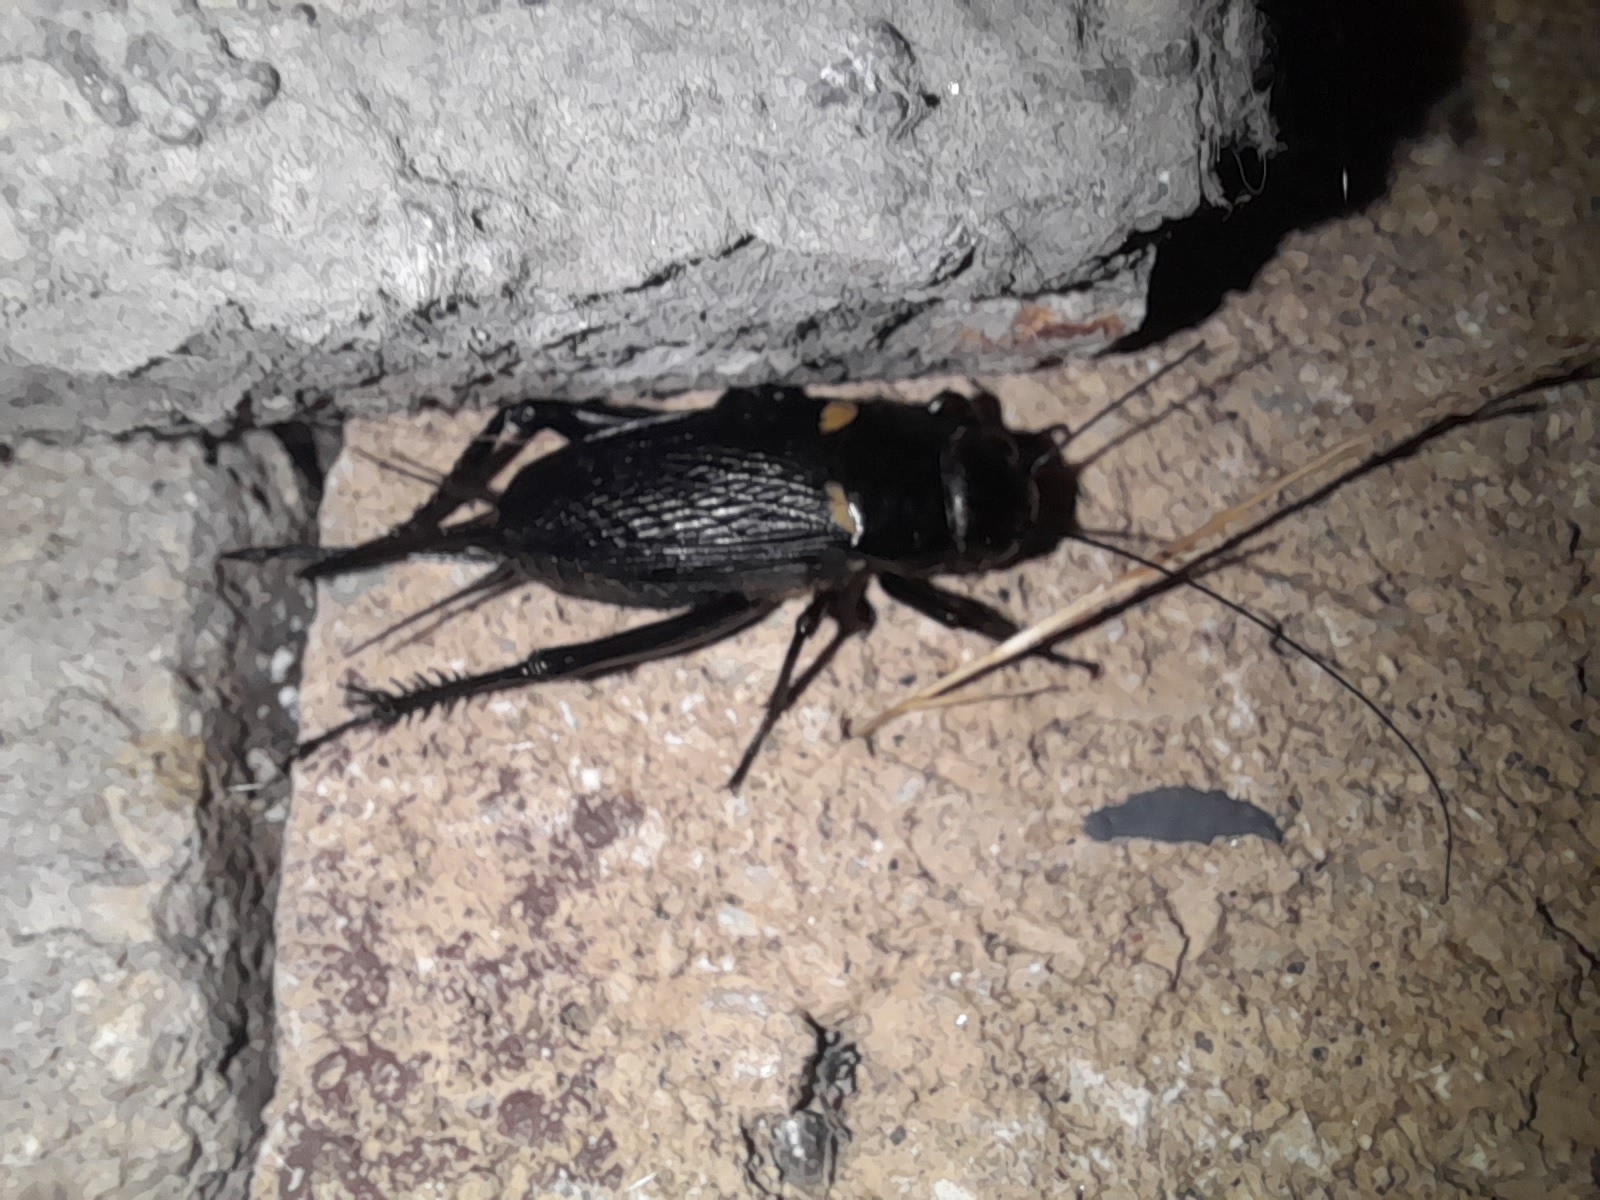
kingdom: Animalia
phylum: Arthropoda
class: Insecta
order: Orthoptera
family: Gryllidae
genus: Gryllus
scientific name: Gryllus bimaculatus
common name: Two-spotted cricket
